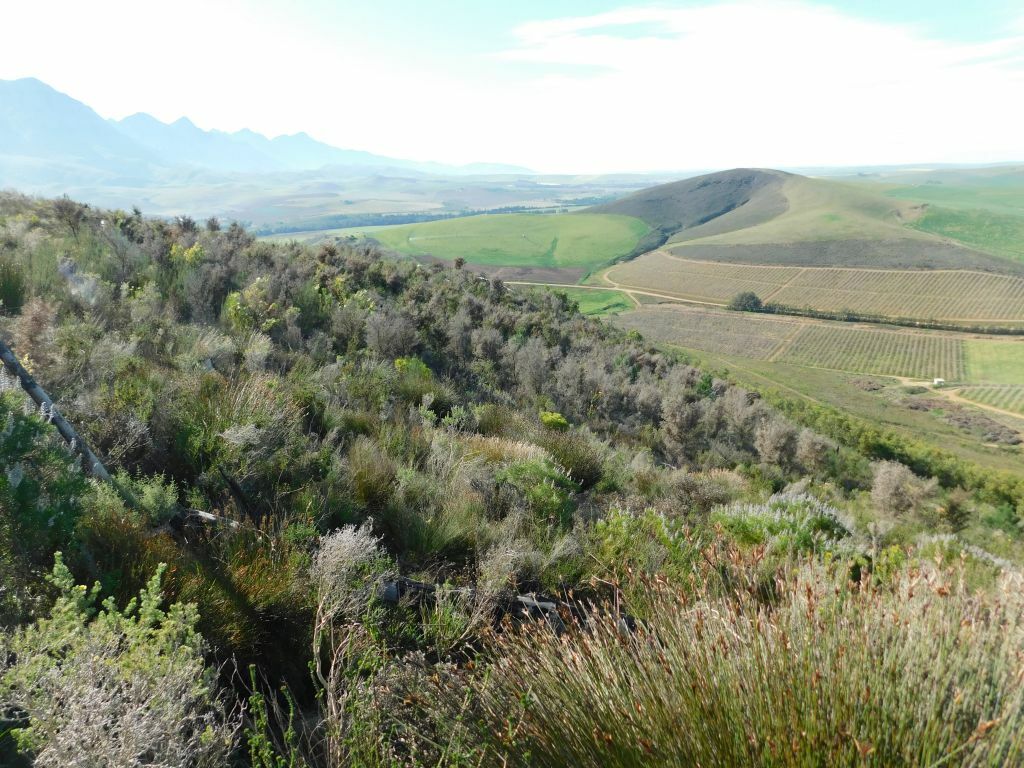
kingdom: Fungi
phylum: Ascomycota
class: Sordariomycetes
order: Glomerellales
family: Glomerellaceae
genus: Colletotrichum
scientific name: Colletotrichum acutatum
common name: Hakea gummosis fungus
